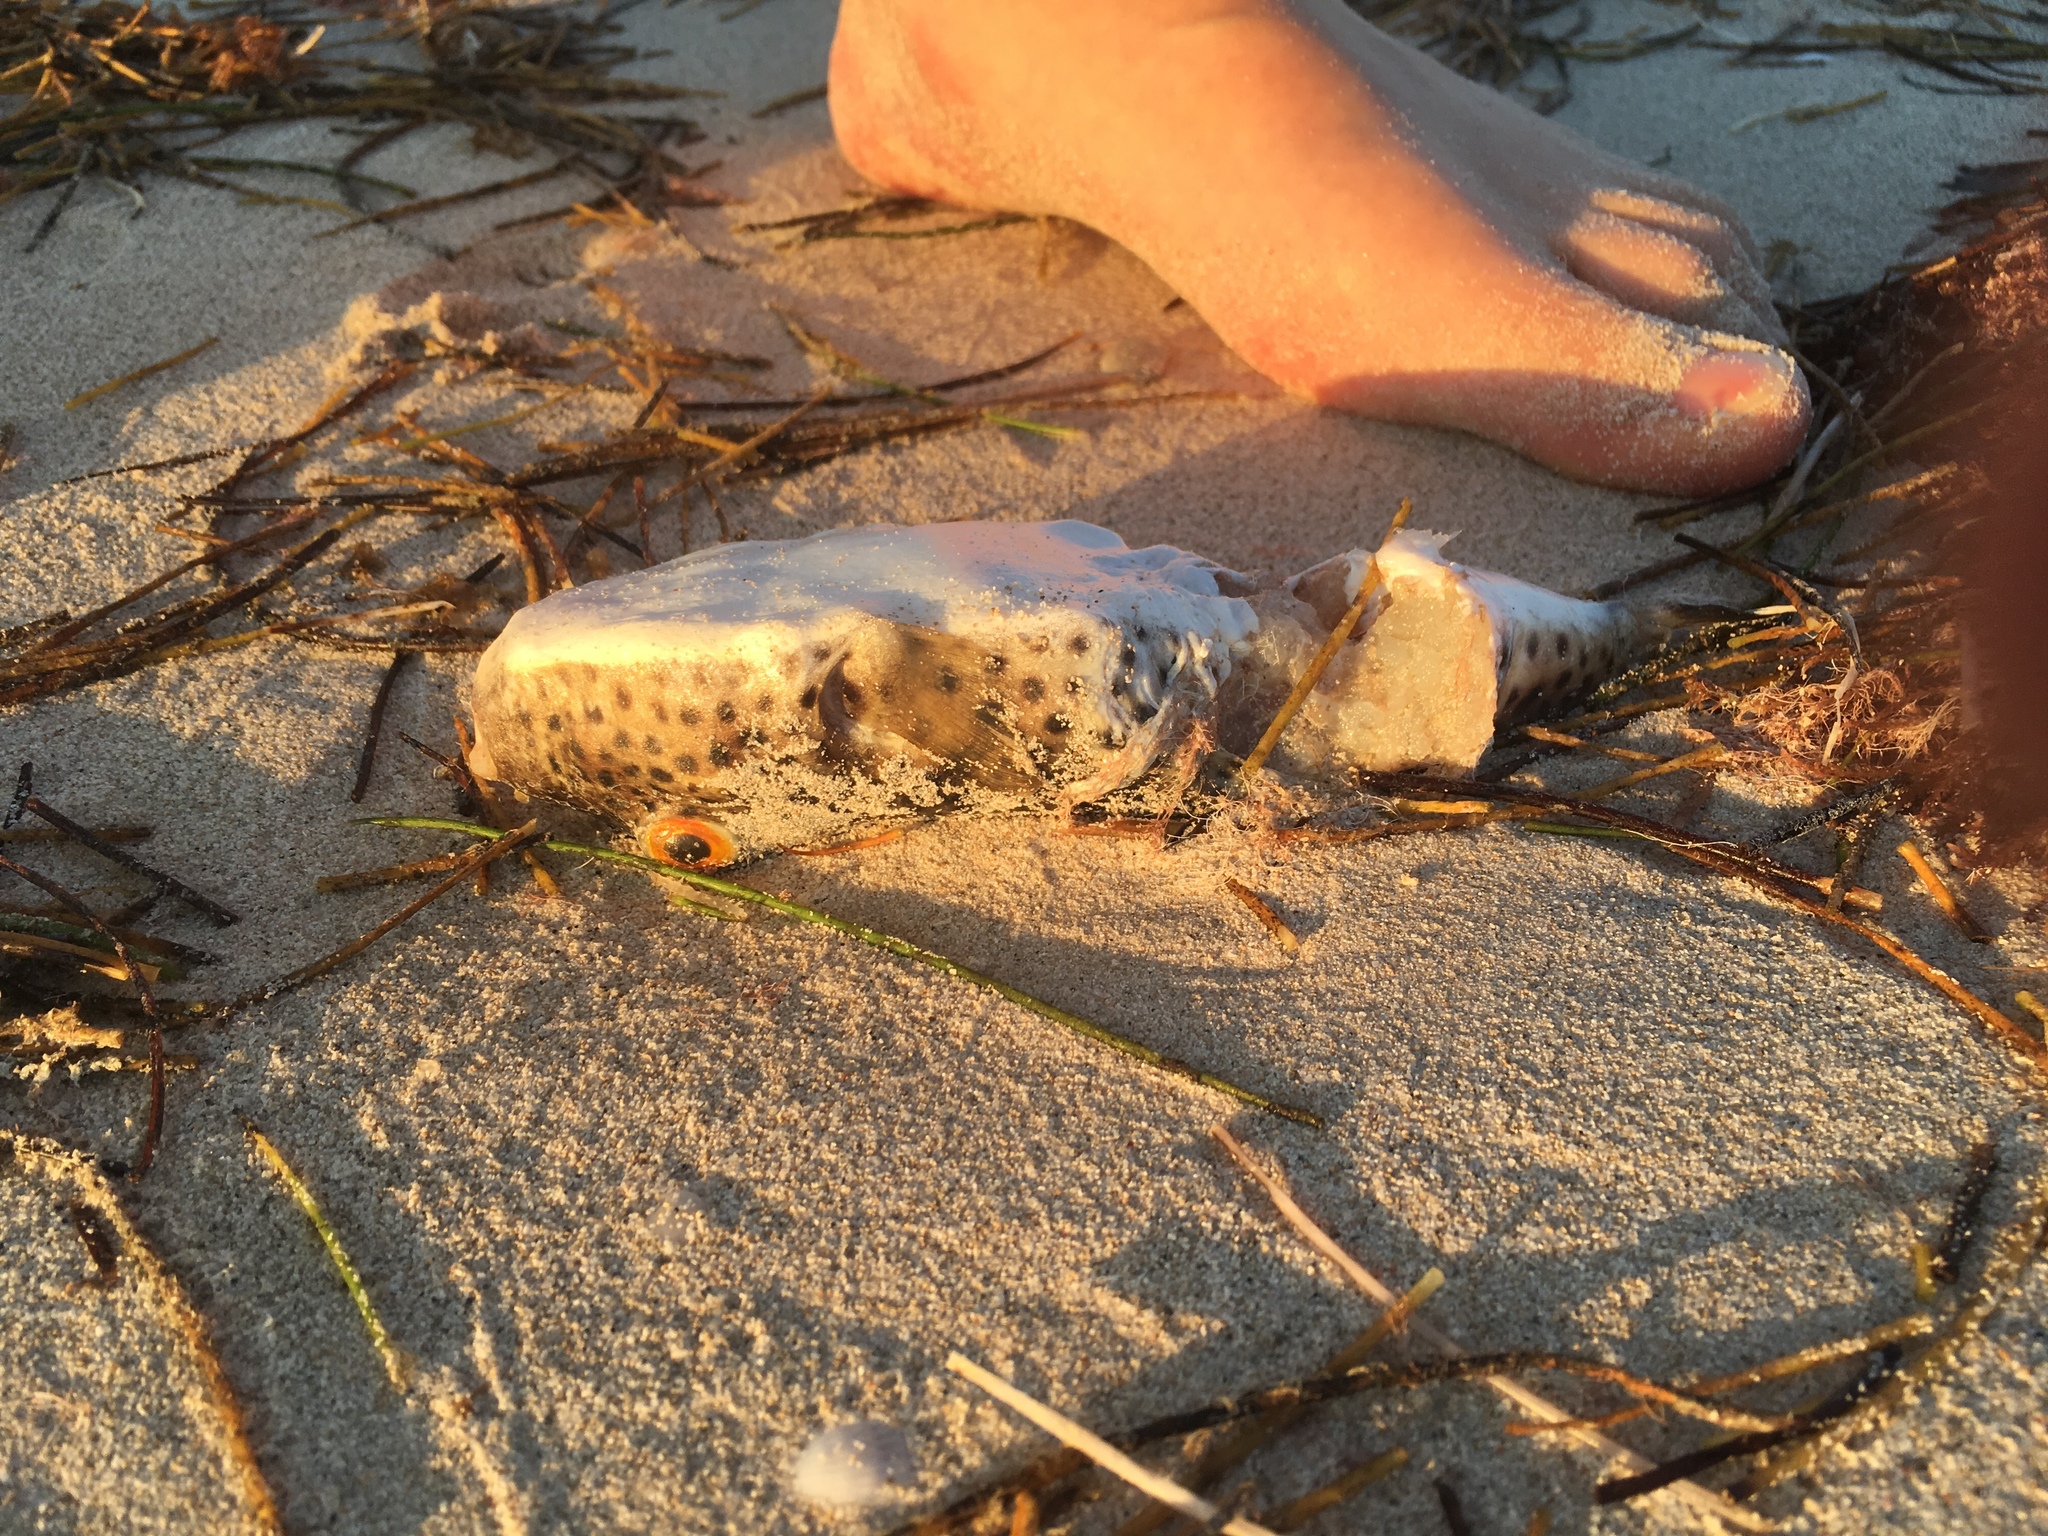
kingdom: Animalia
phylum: Chordata
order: Tetraodontiformes
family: Tetraodontidae
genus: Sphoeroides
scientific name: Sphoeroides testudineus
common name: Checkered puffer
